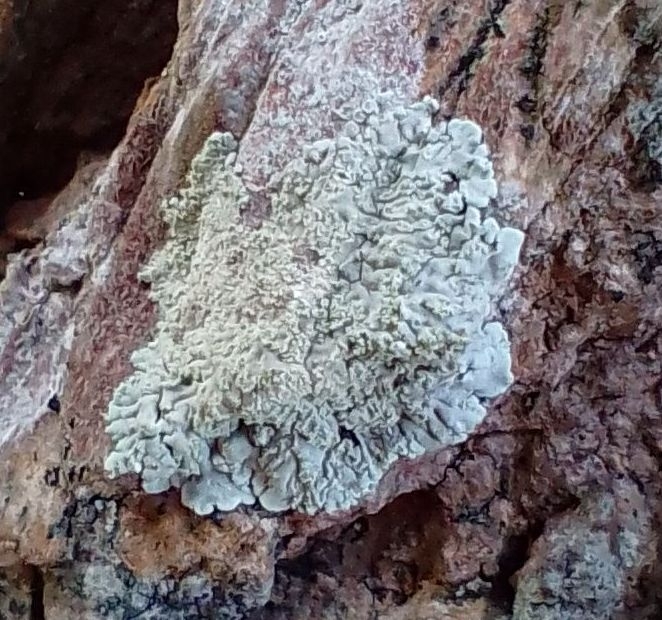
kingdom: Fungi
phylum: Ascomycota
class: Lecanoromycetes
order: Caliciales
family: Caliciaceae
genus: Diploicia
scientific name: Diploicia canescens
